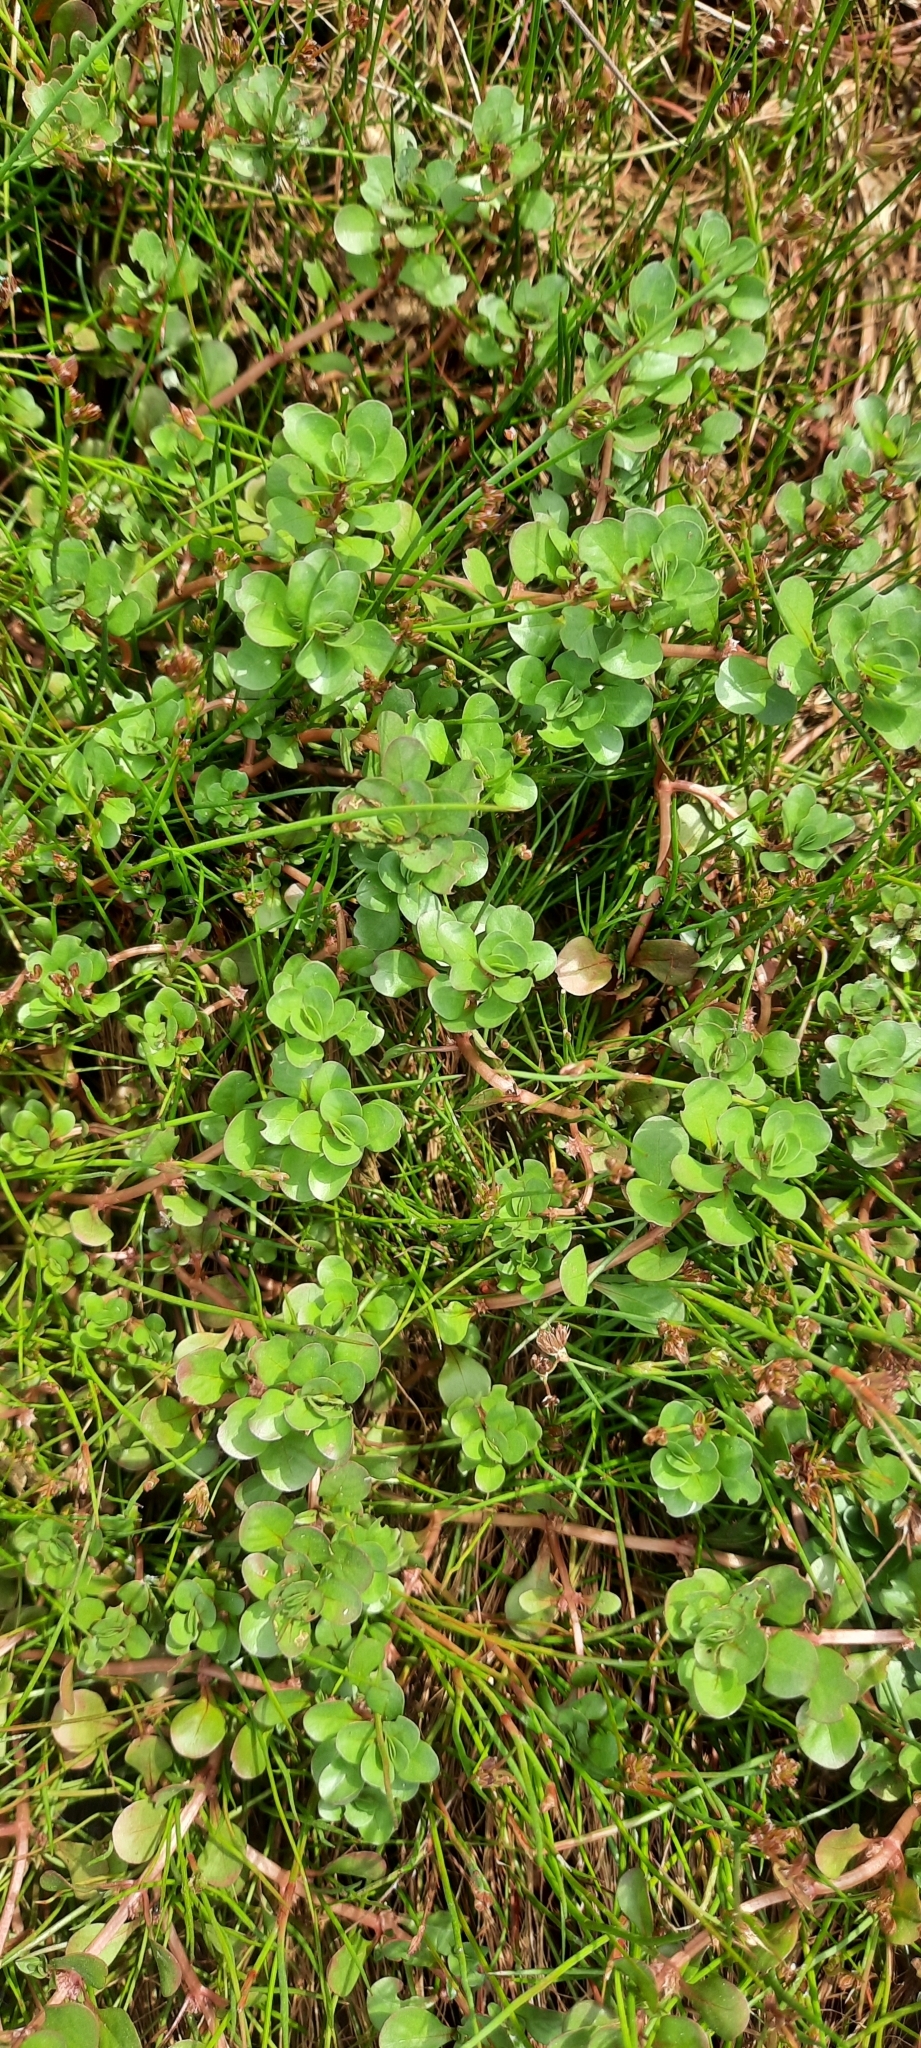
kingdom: Plantae
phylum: Tracheophyta
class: Magnoliopsida
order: Myrtales
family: Lythraceae
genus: Lythrum
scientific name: Lythrum portula
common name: Water purslane
